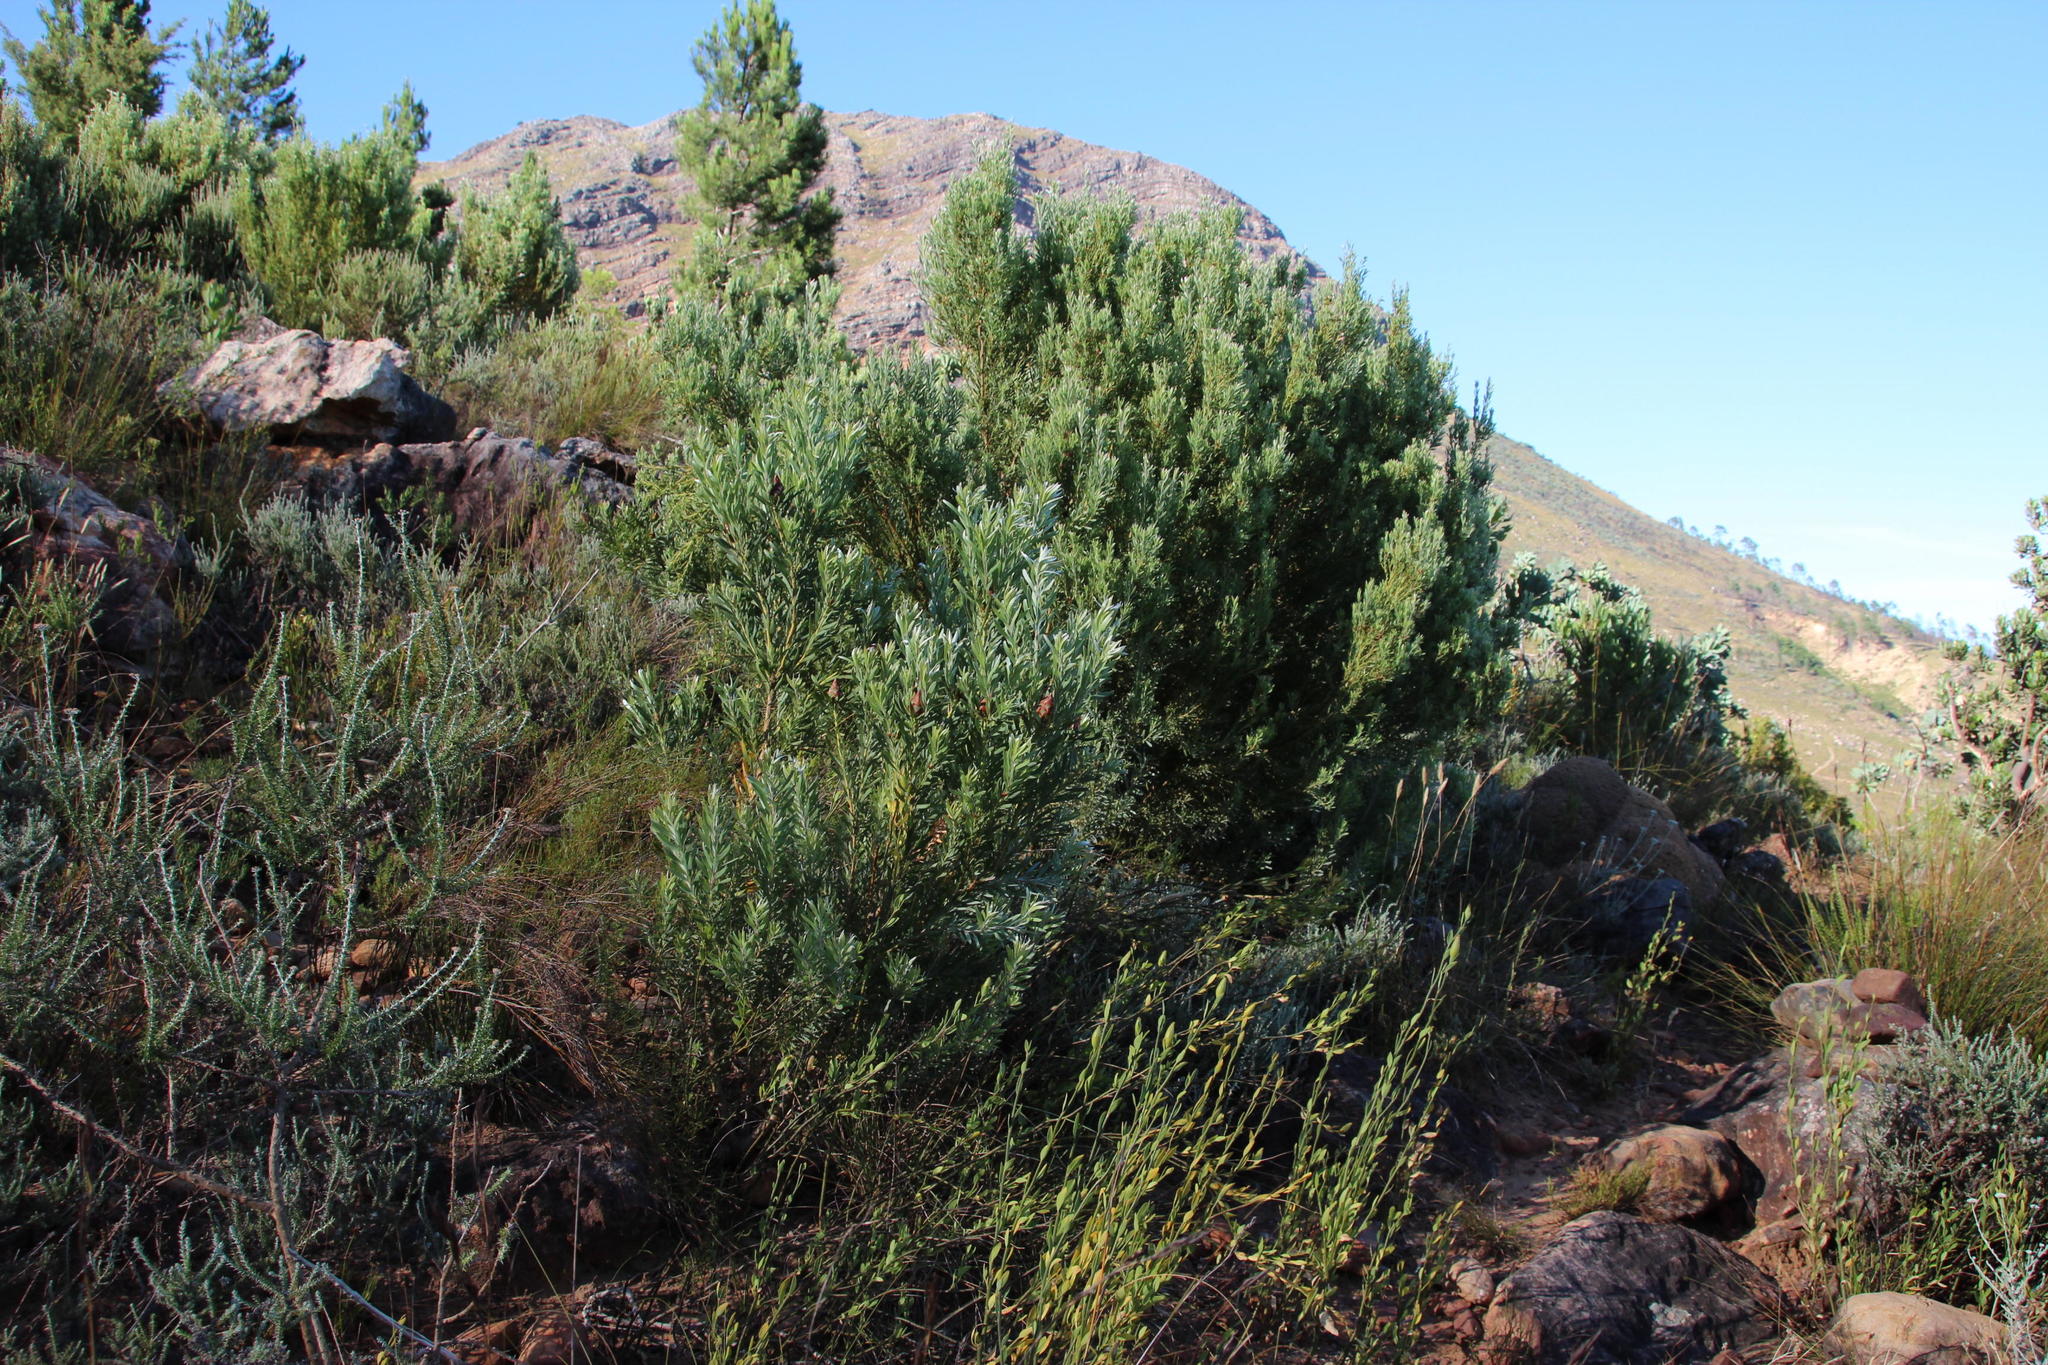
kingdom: Plantae
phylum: Tracheophyta
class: Magnoliopsida
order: Proteales
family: Proteaceae
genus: Leucadendron
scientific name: Leucadendron rubrum
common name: Spinning top
